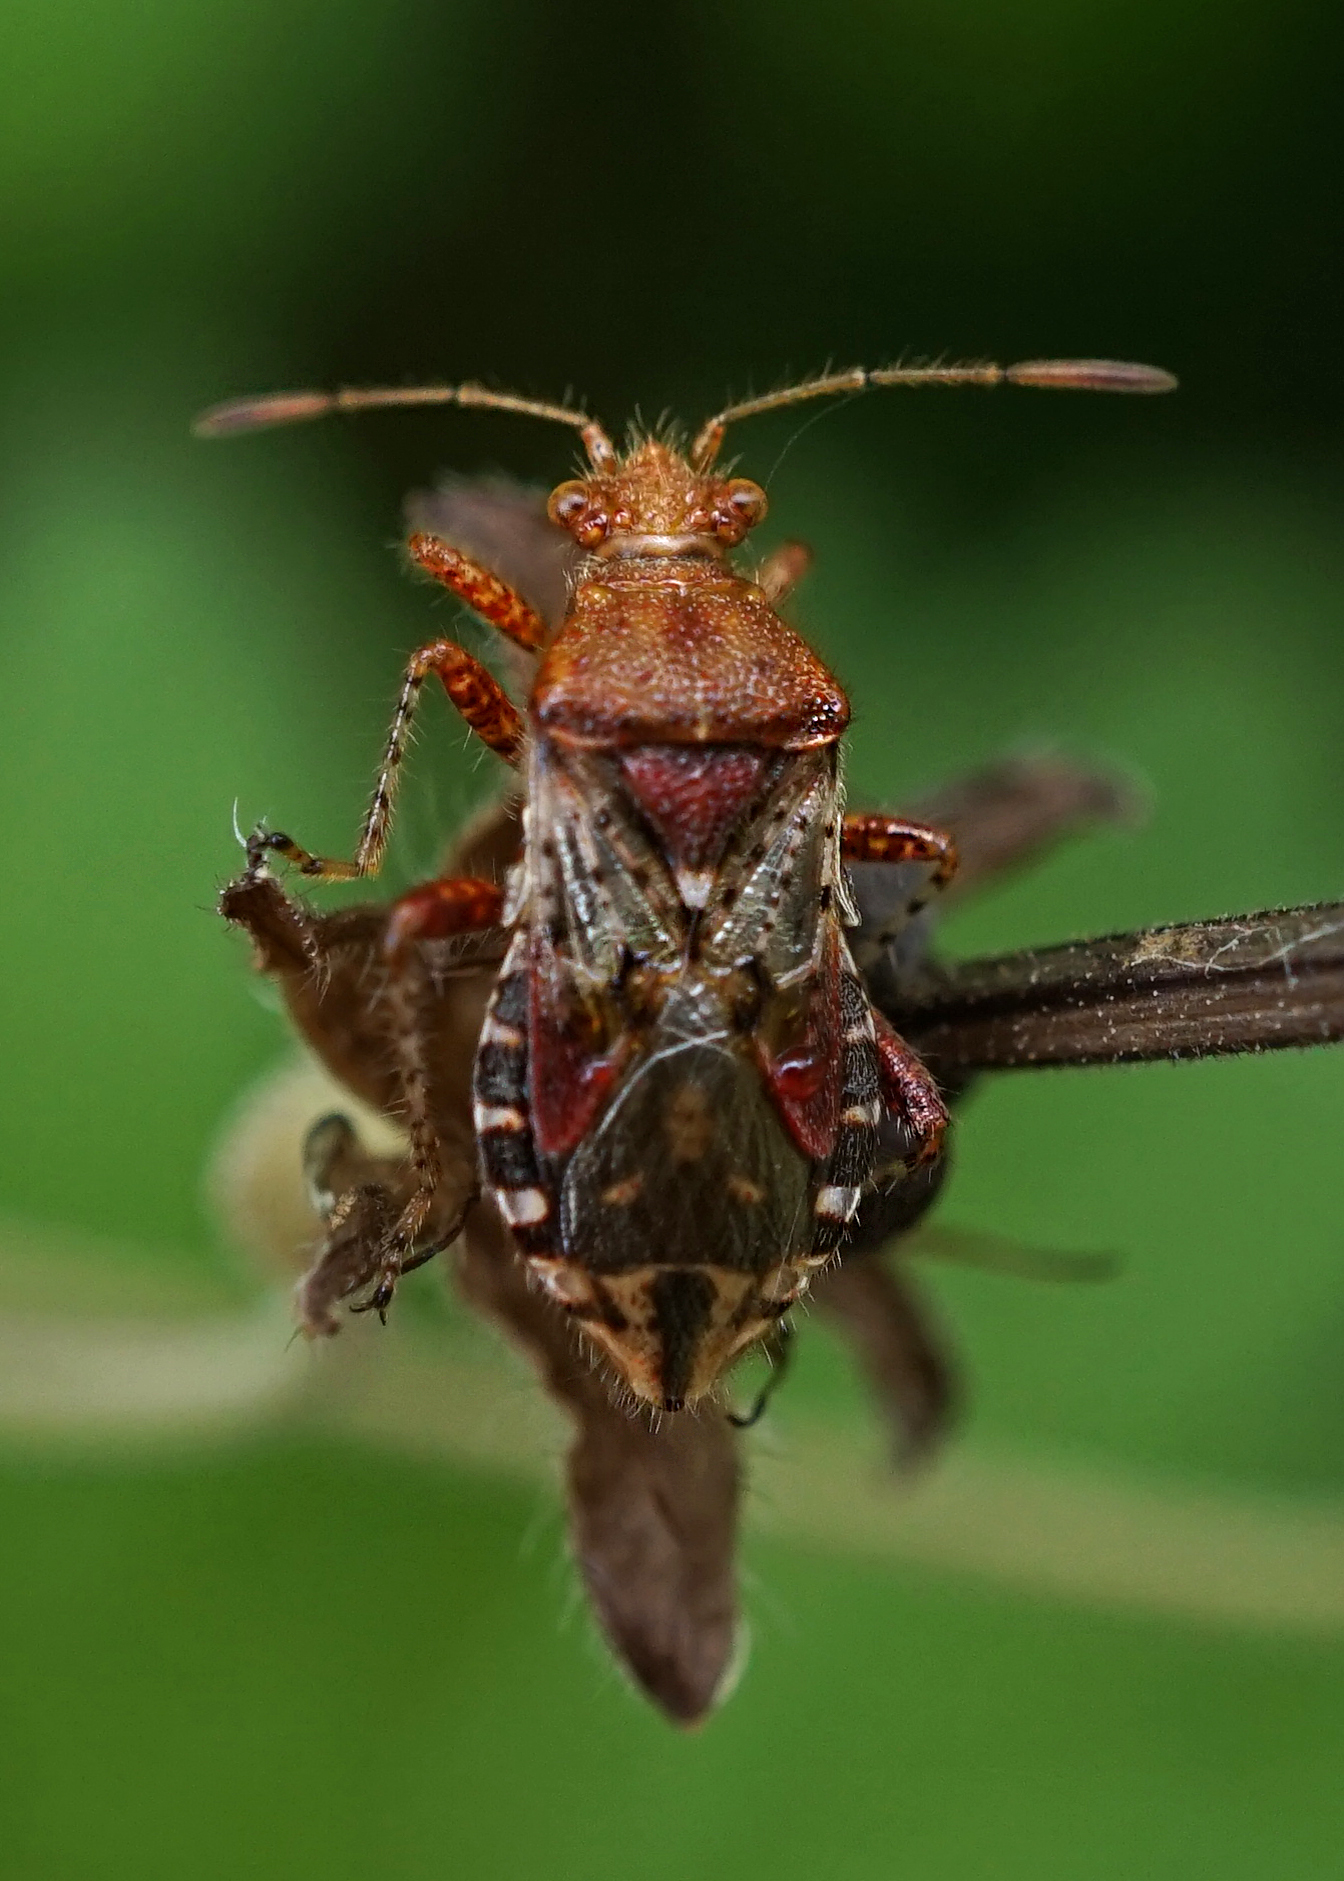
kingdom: Animalia
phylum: Arthropoda
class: Insecta
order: Hemiptera
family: Rhopalidae
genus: Rhopalus
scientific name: Rhopalus subrufus
